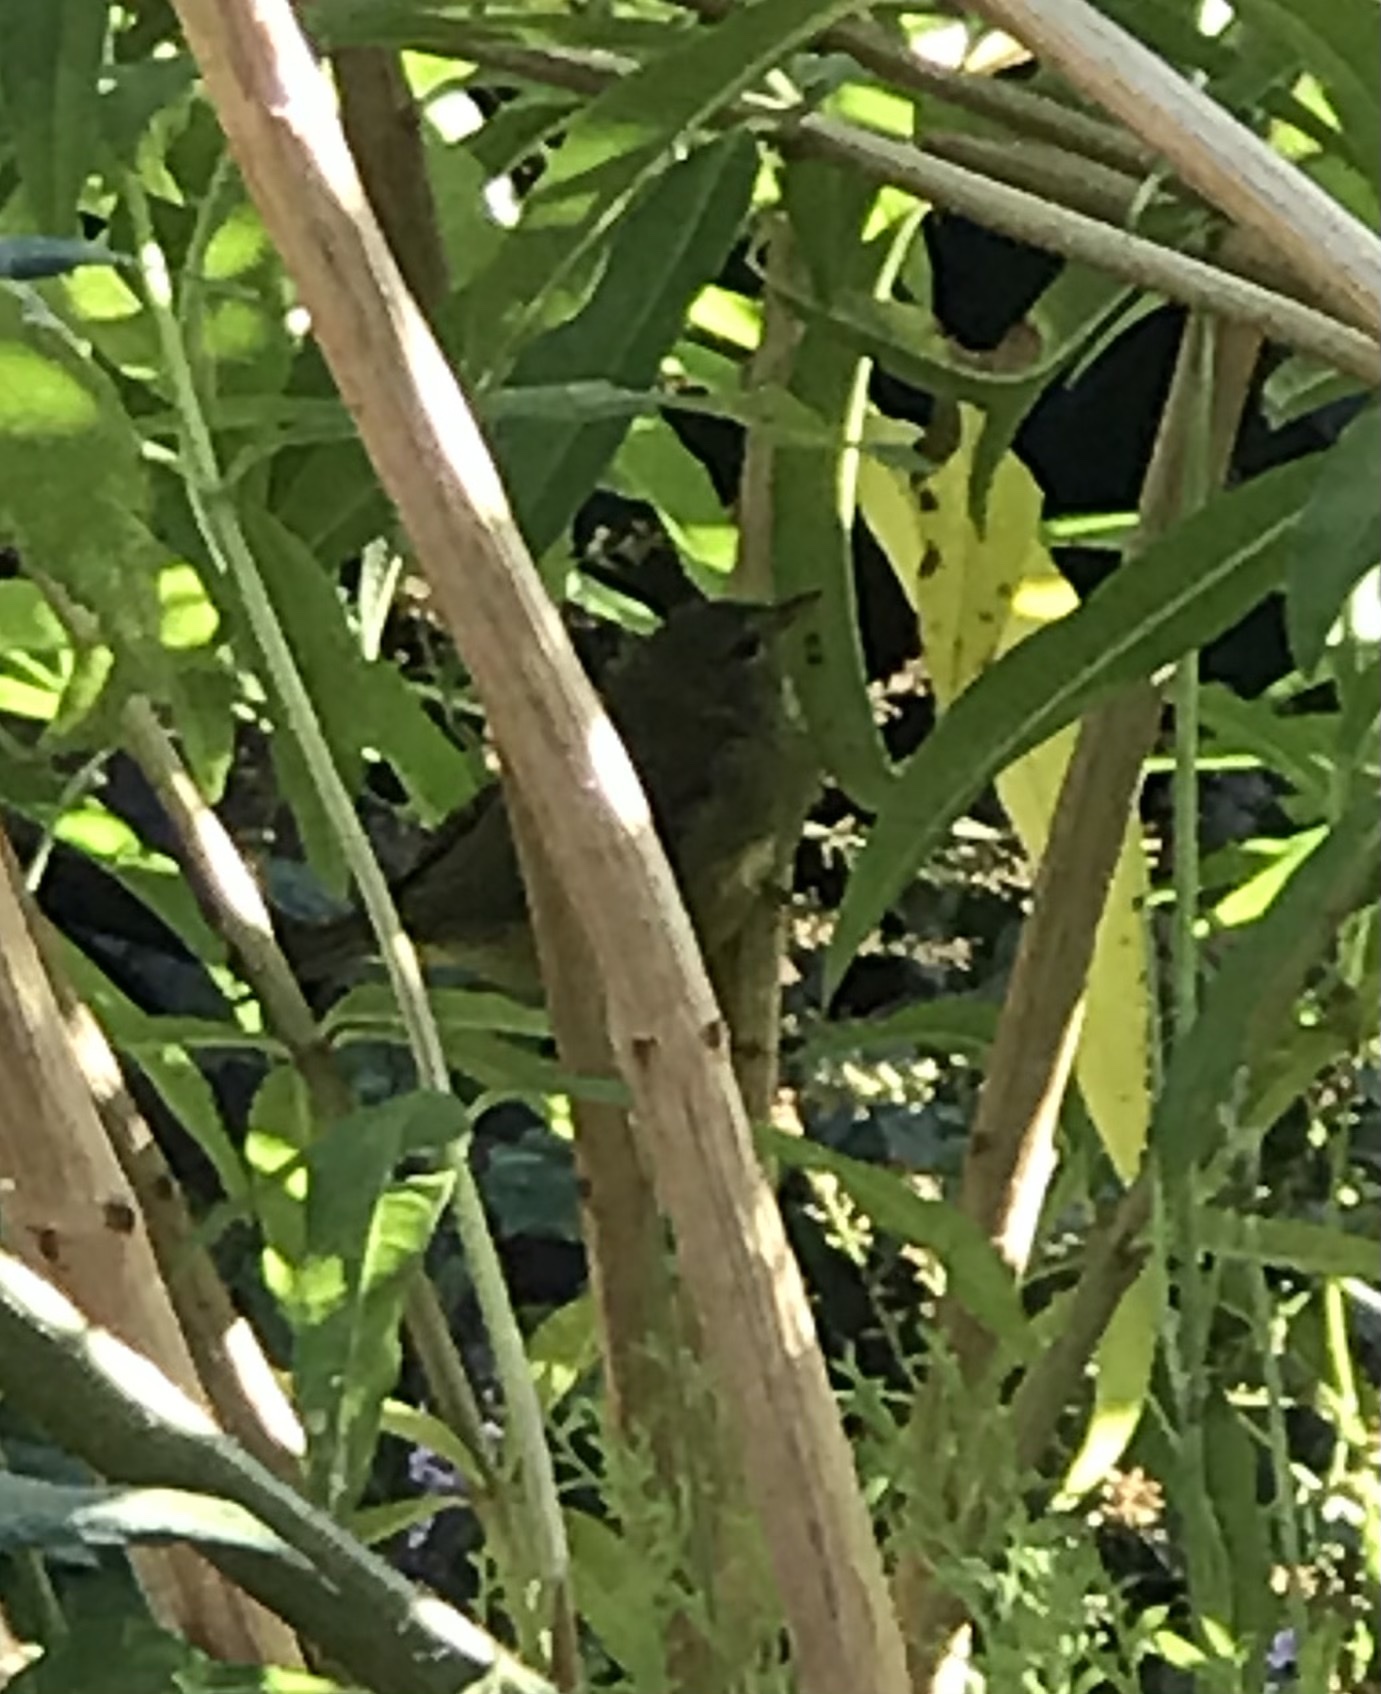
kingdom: Animalia
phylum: Chordata
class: Aves
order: Passeriformes
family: Parulidae
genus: Leiothlypis
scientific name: Leiothlypis celata
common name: Orange-crowned warbler
